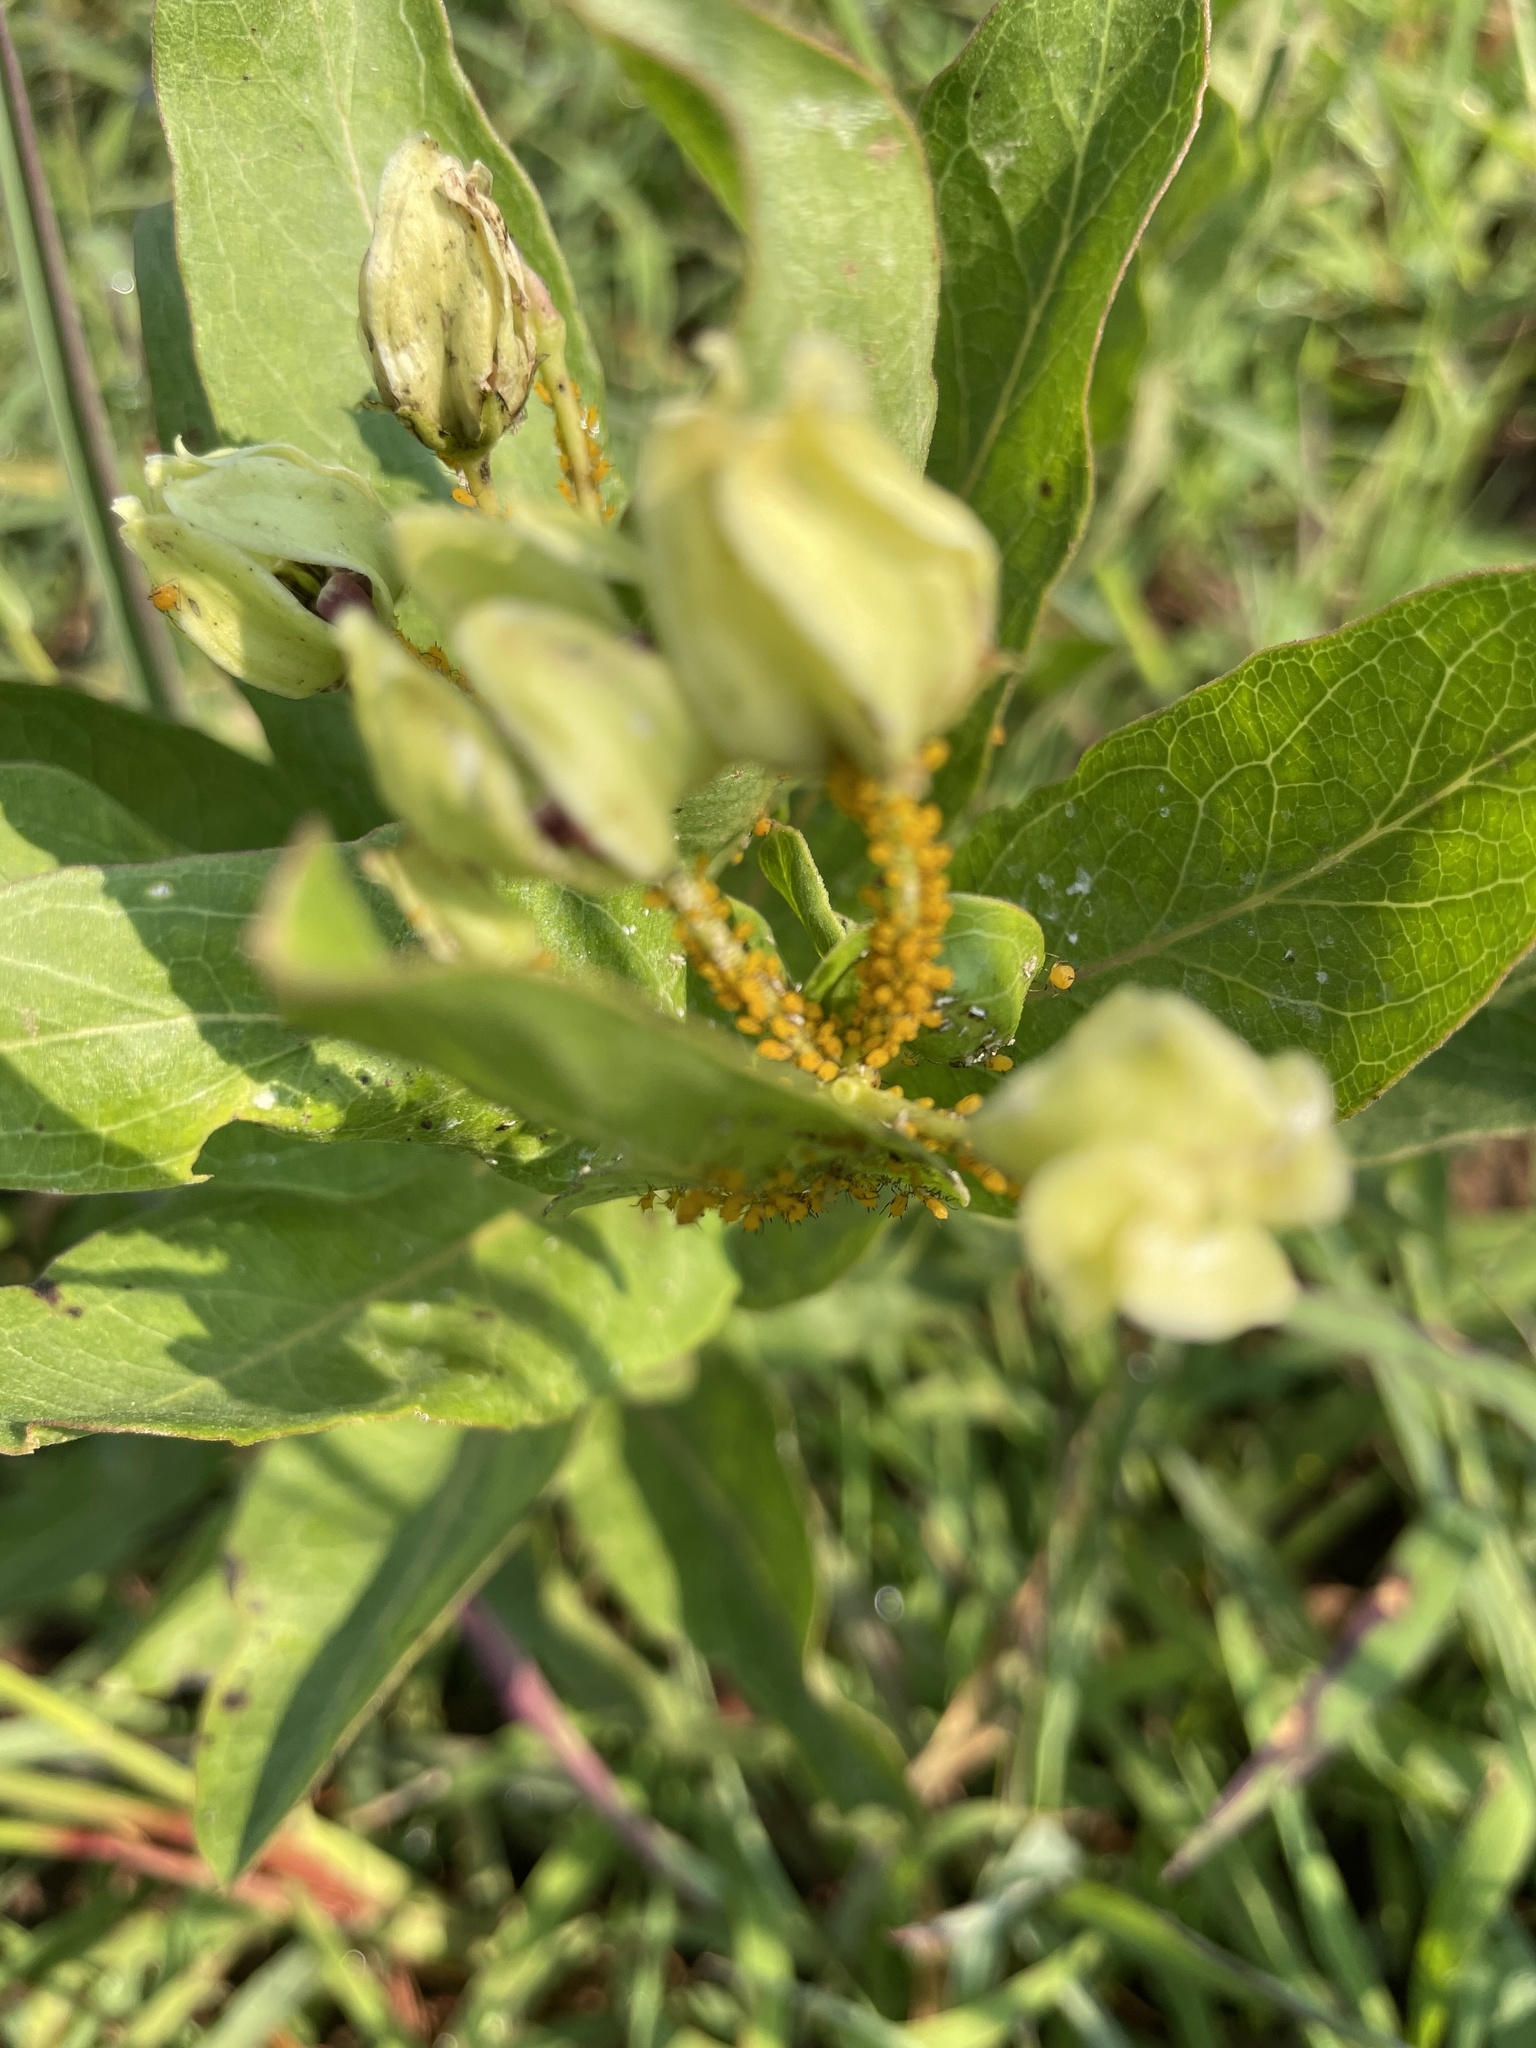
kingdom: Animalia
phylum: Arthropoda
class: Insecta
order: Hemiptera
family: Aphididae
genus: Aphis
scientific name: Aphis nerii
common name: Oleander aphid
